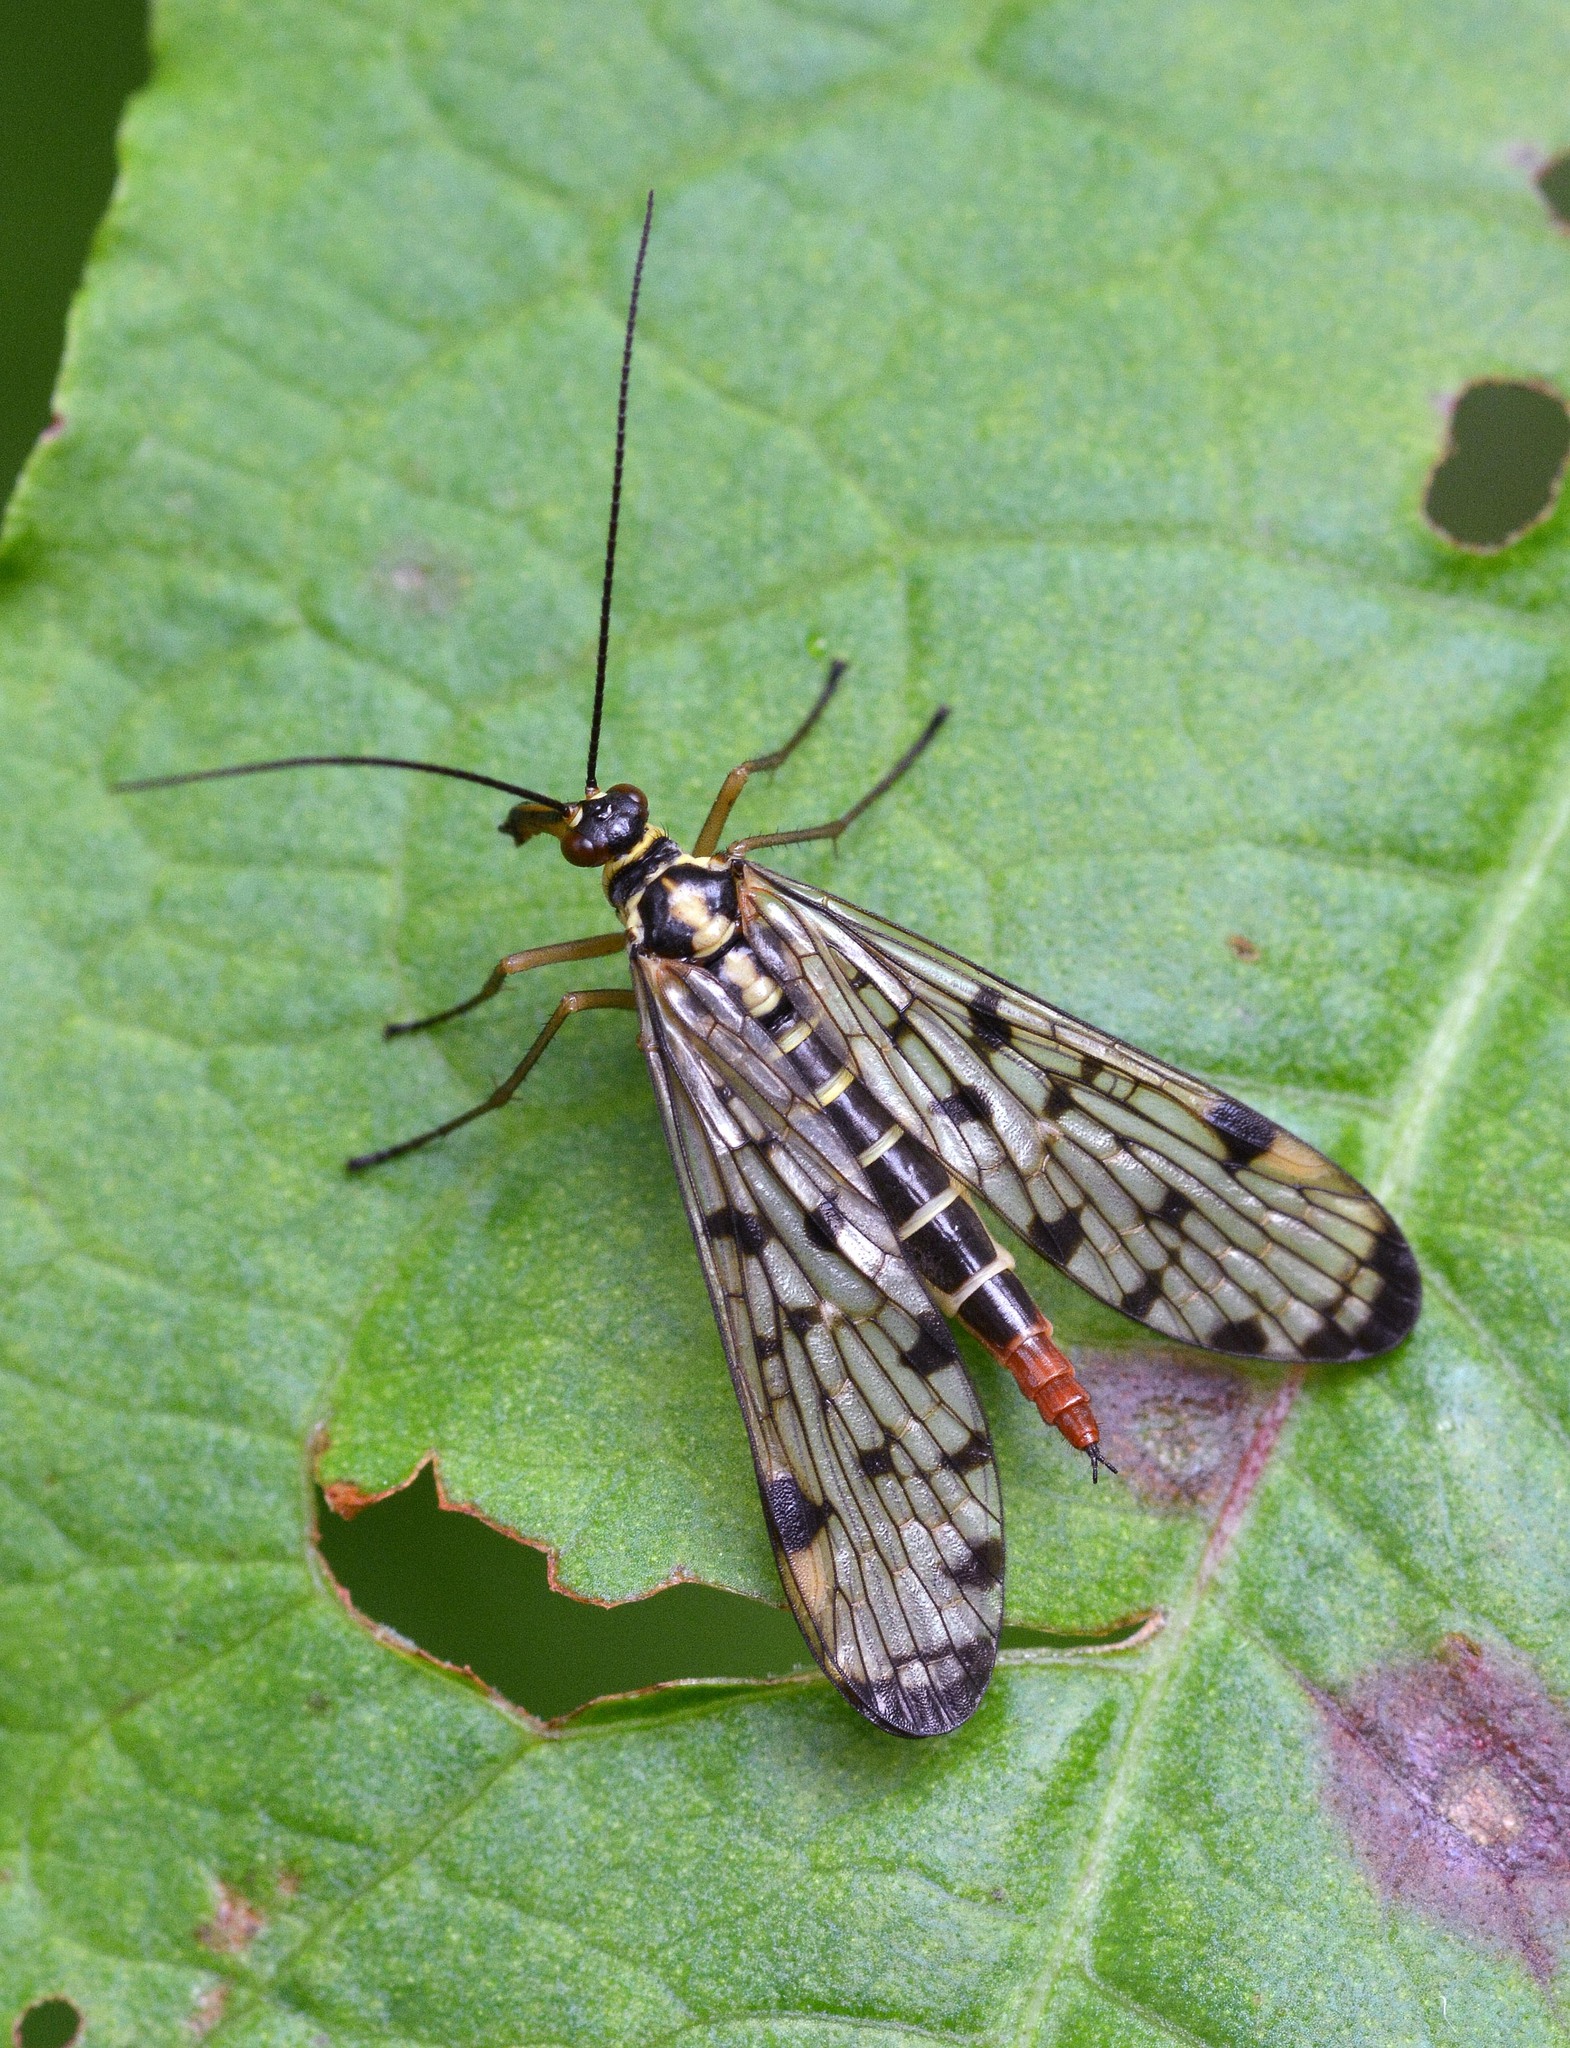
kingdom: Animalia
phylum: Arthropoda
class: Insecta
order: Mecoptera
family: Panorpidae
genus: Panorpa
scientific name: Panorpa
